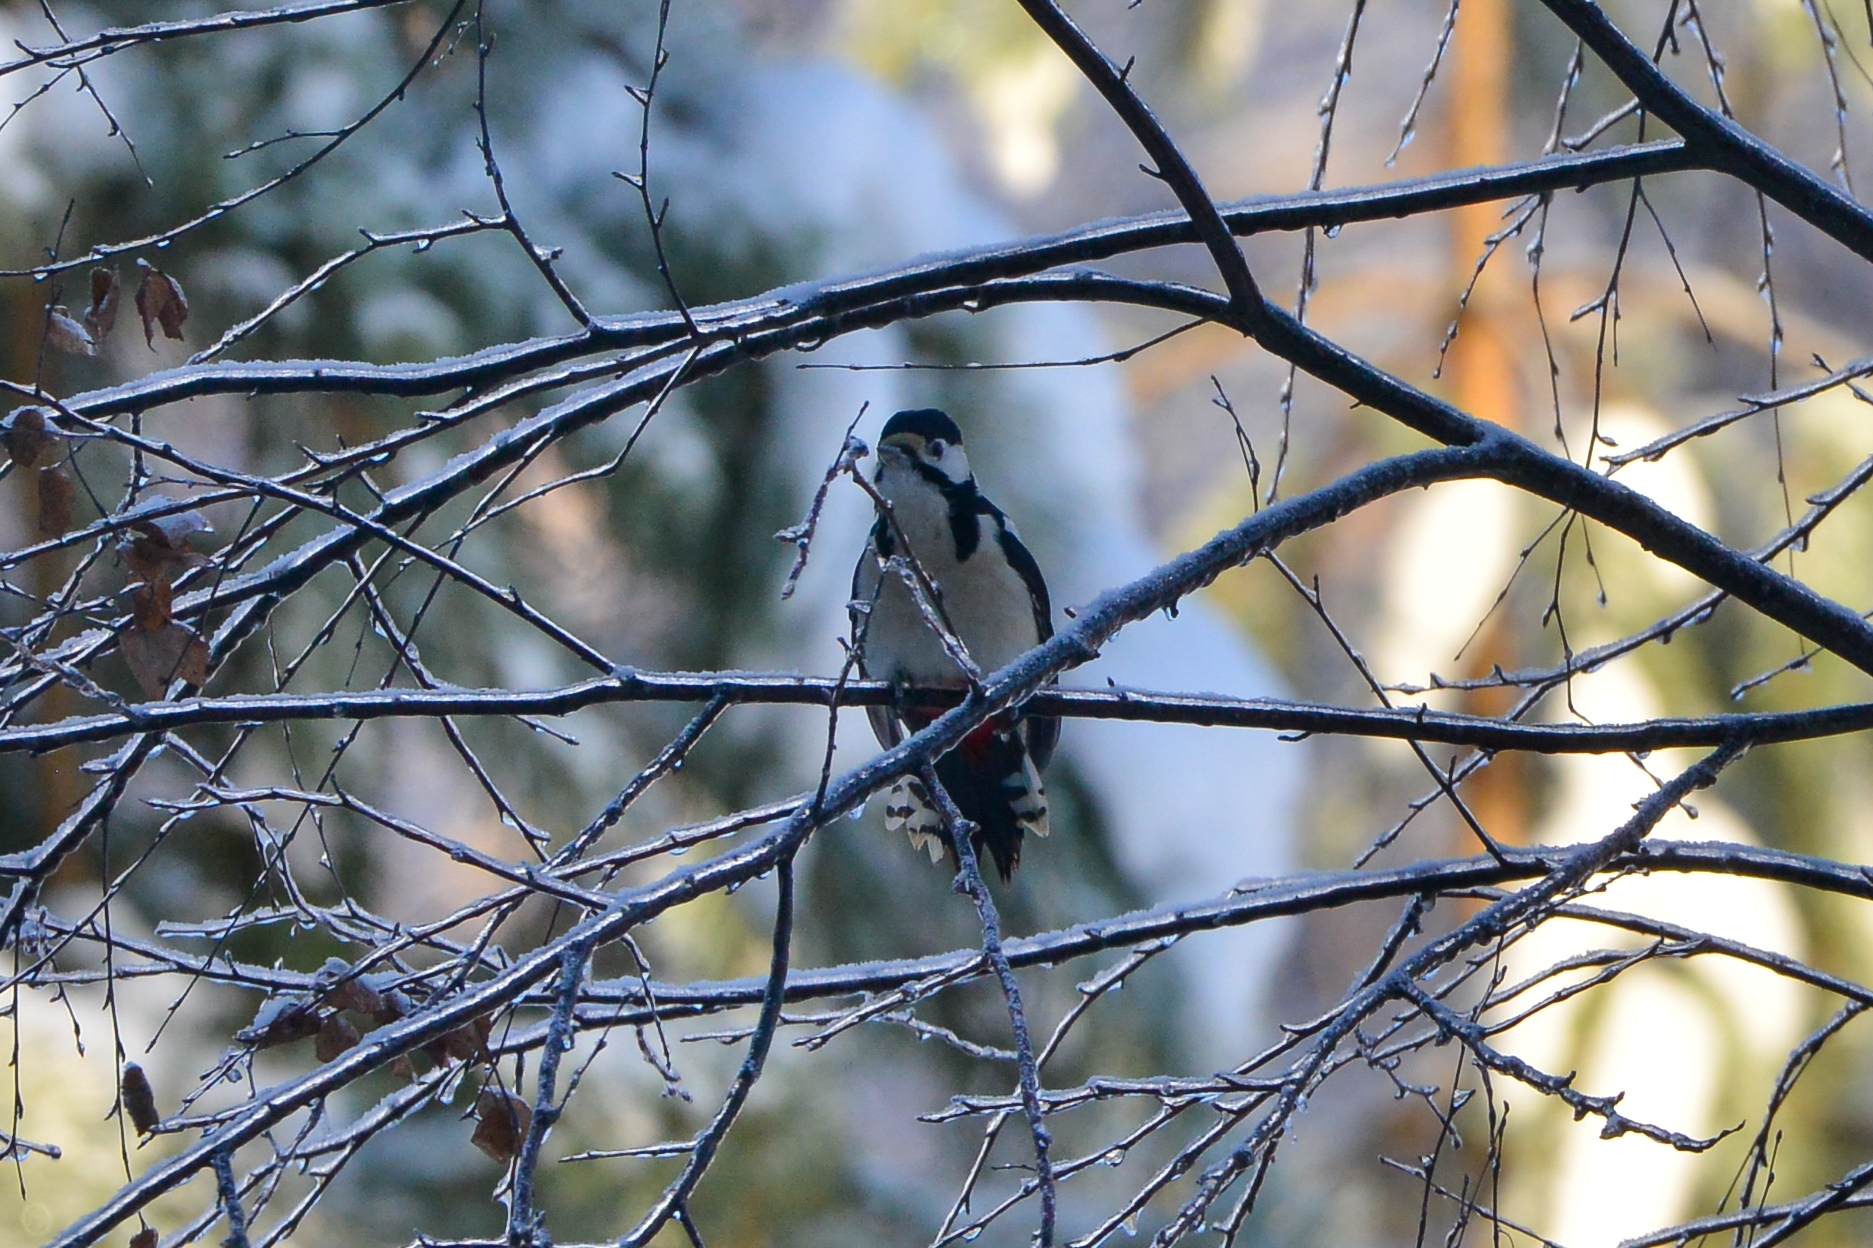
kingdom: Animalia
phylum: Chordata
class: Aves
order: Piciformes
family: Picidae
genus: Dendrocopos
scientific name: Dendrocopos major
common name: Great spotted woodpecker
